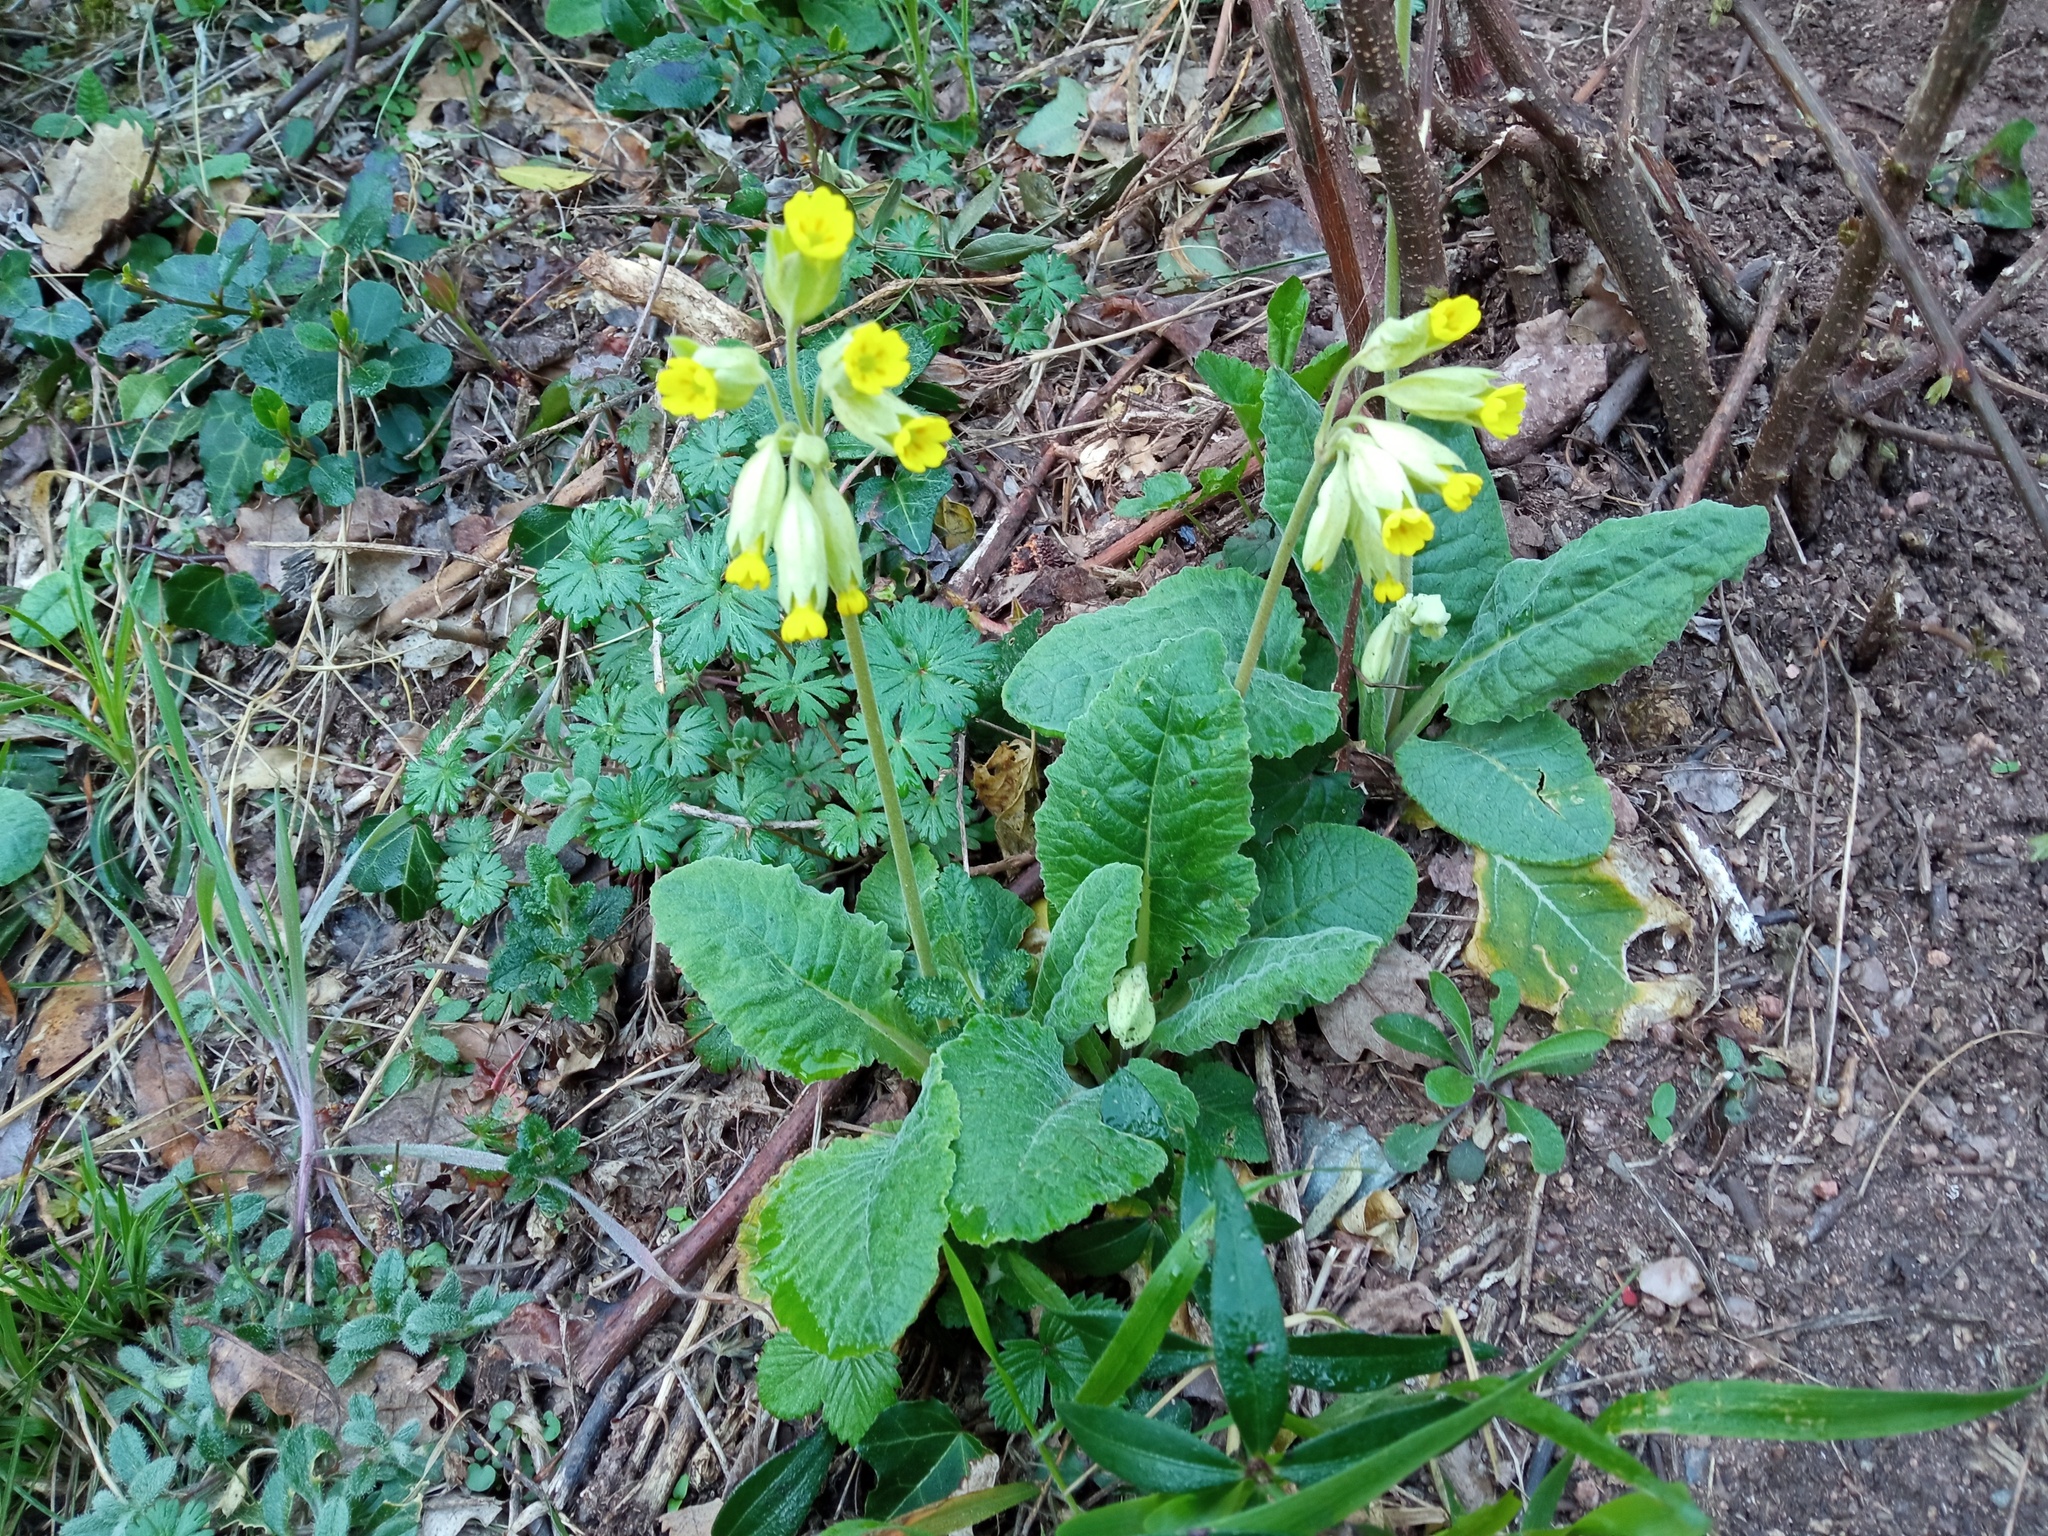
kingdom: Plantae
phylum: Tracheophyta
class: Magnoliopsida
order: Ericales
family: Primulaceae
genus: Primula
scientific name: Primula veris
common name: Cowslip
